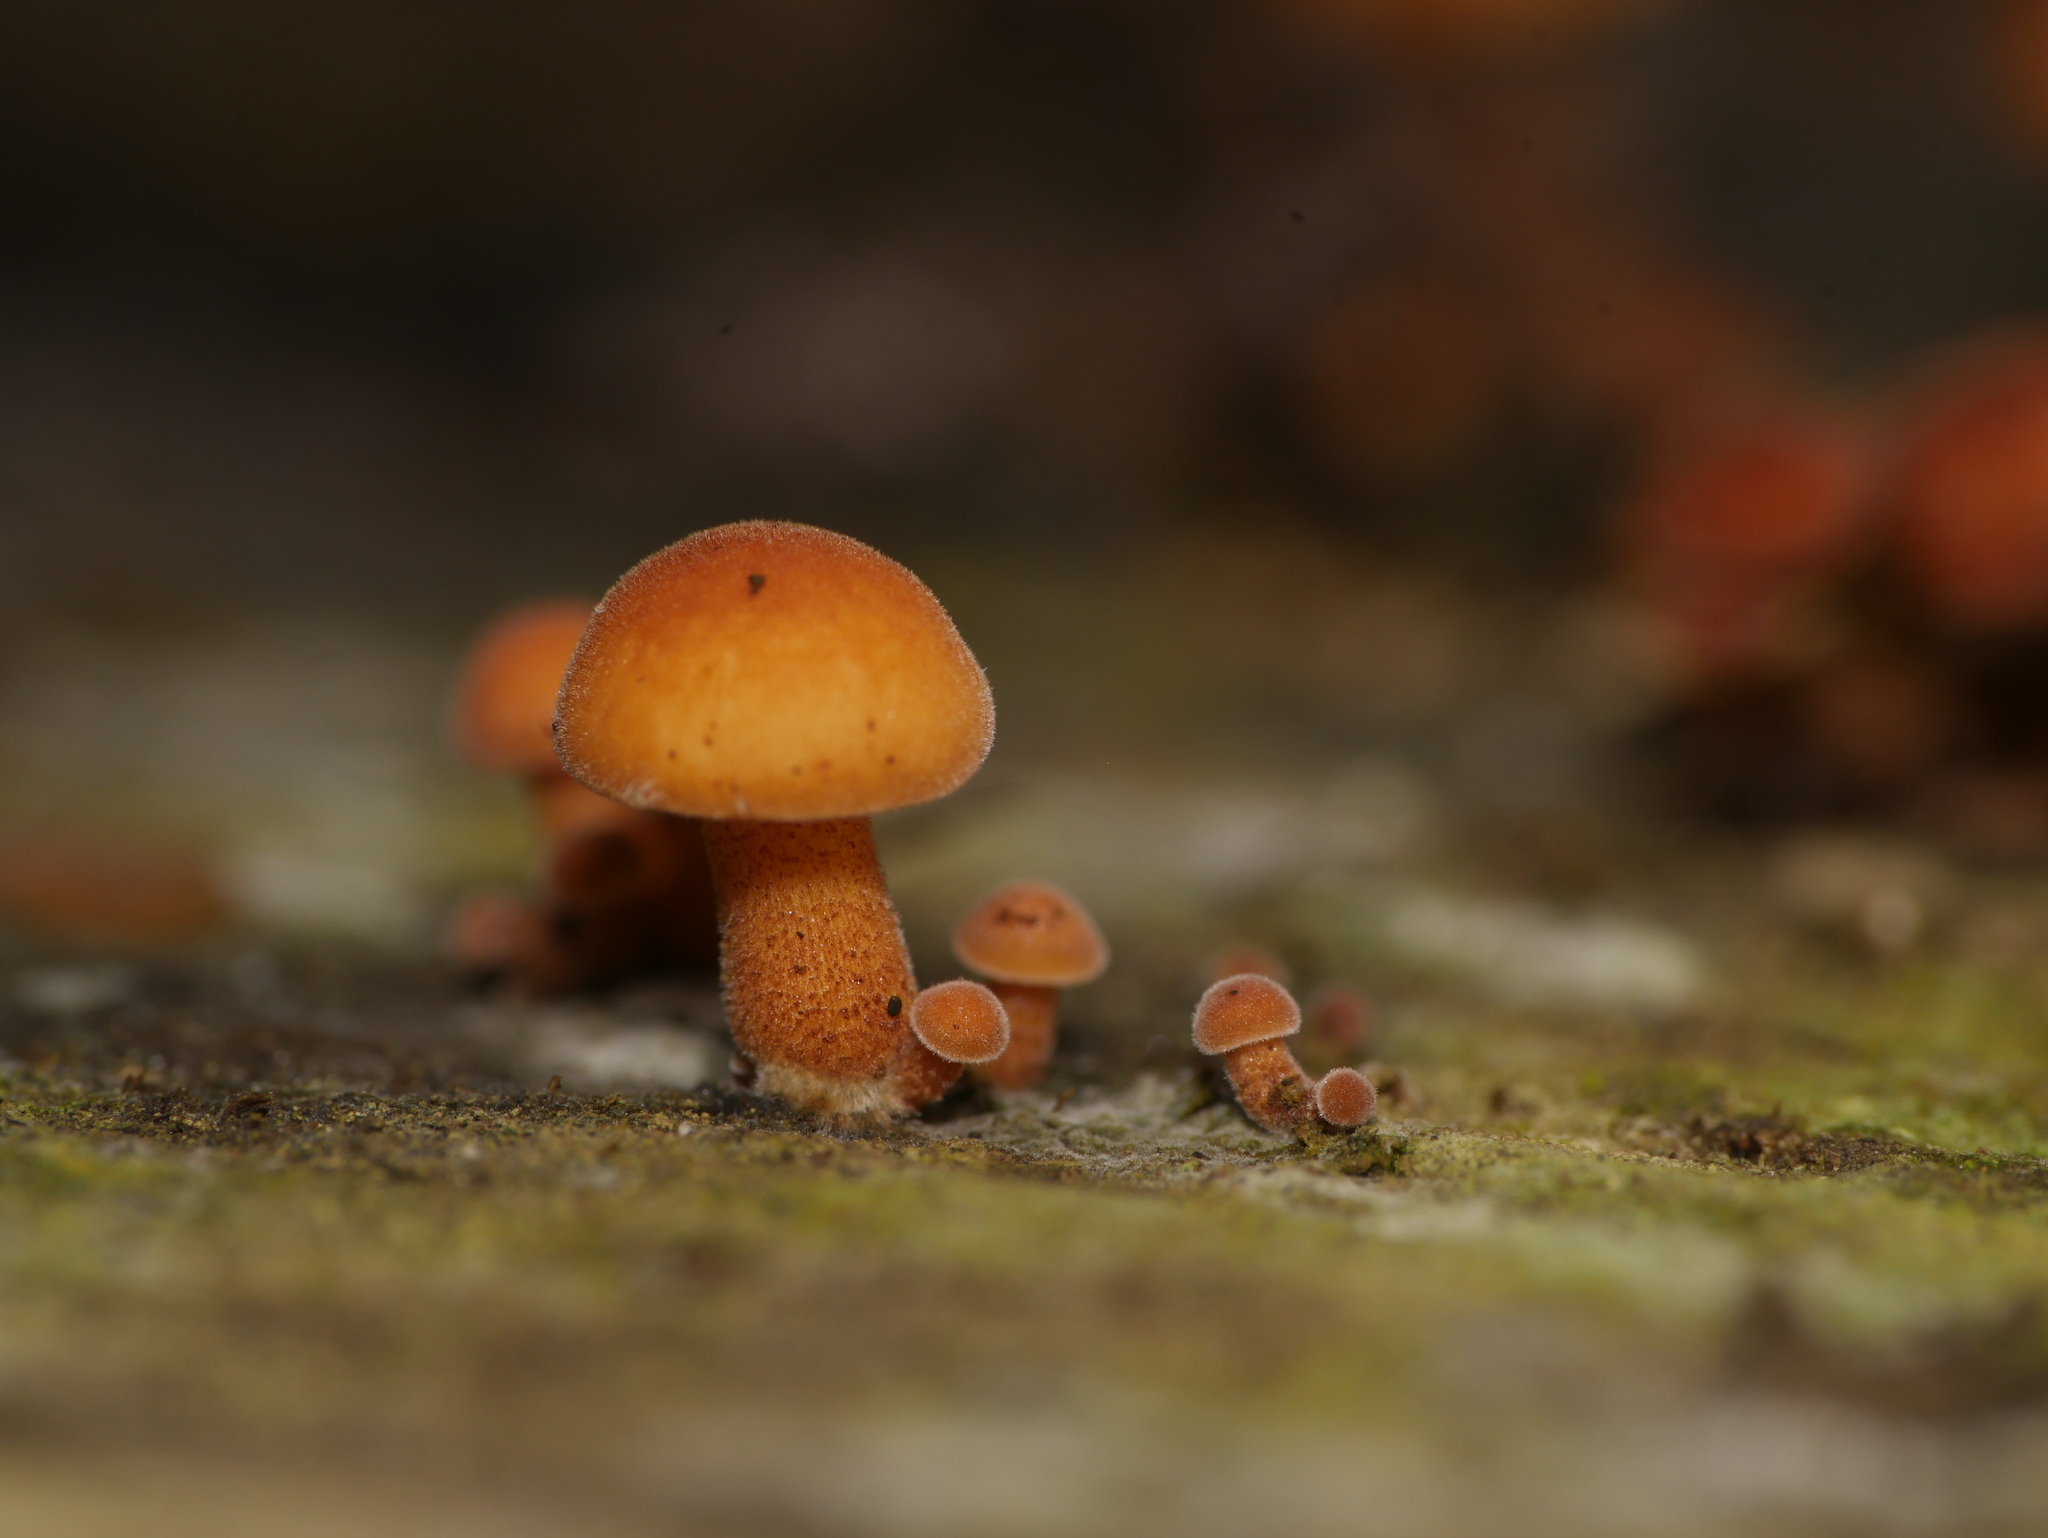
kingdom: Fungi
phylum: Basidiomycota
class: Agaricomycetes
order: Agaricales
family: Physalacriaceae
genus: Flammulina
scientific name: Flammulina
